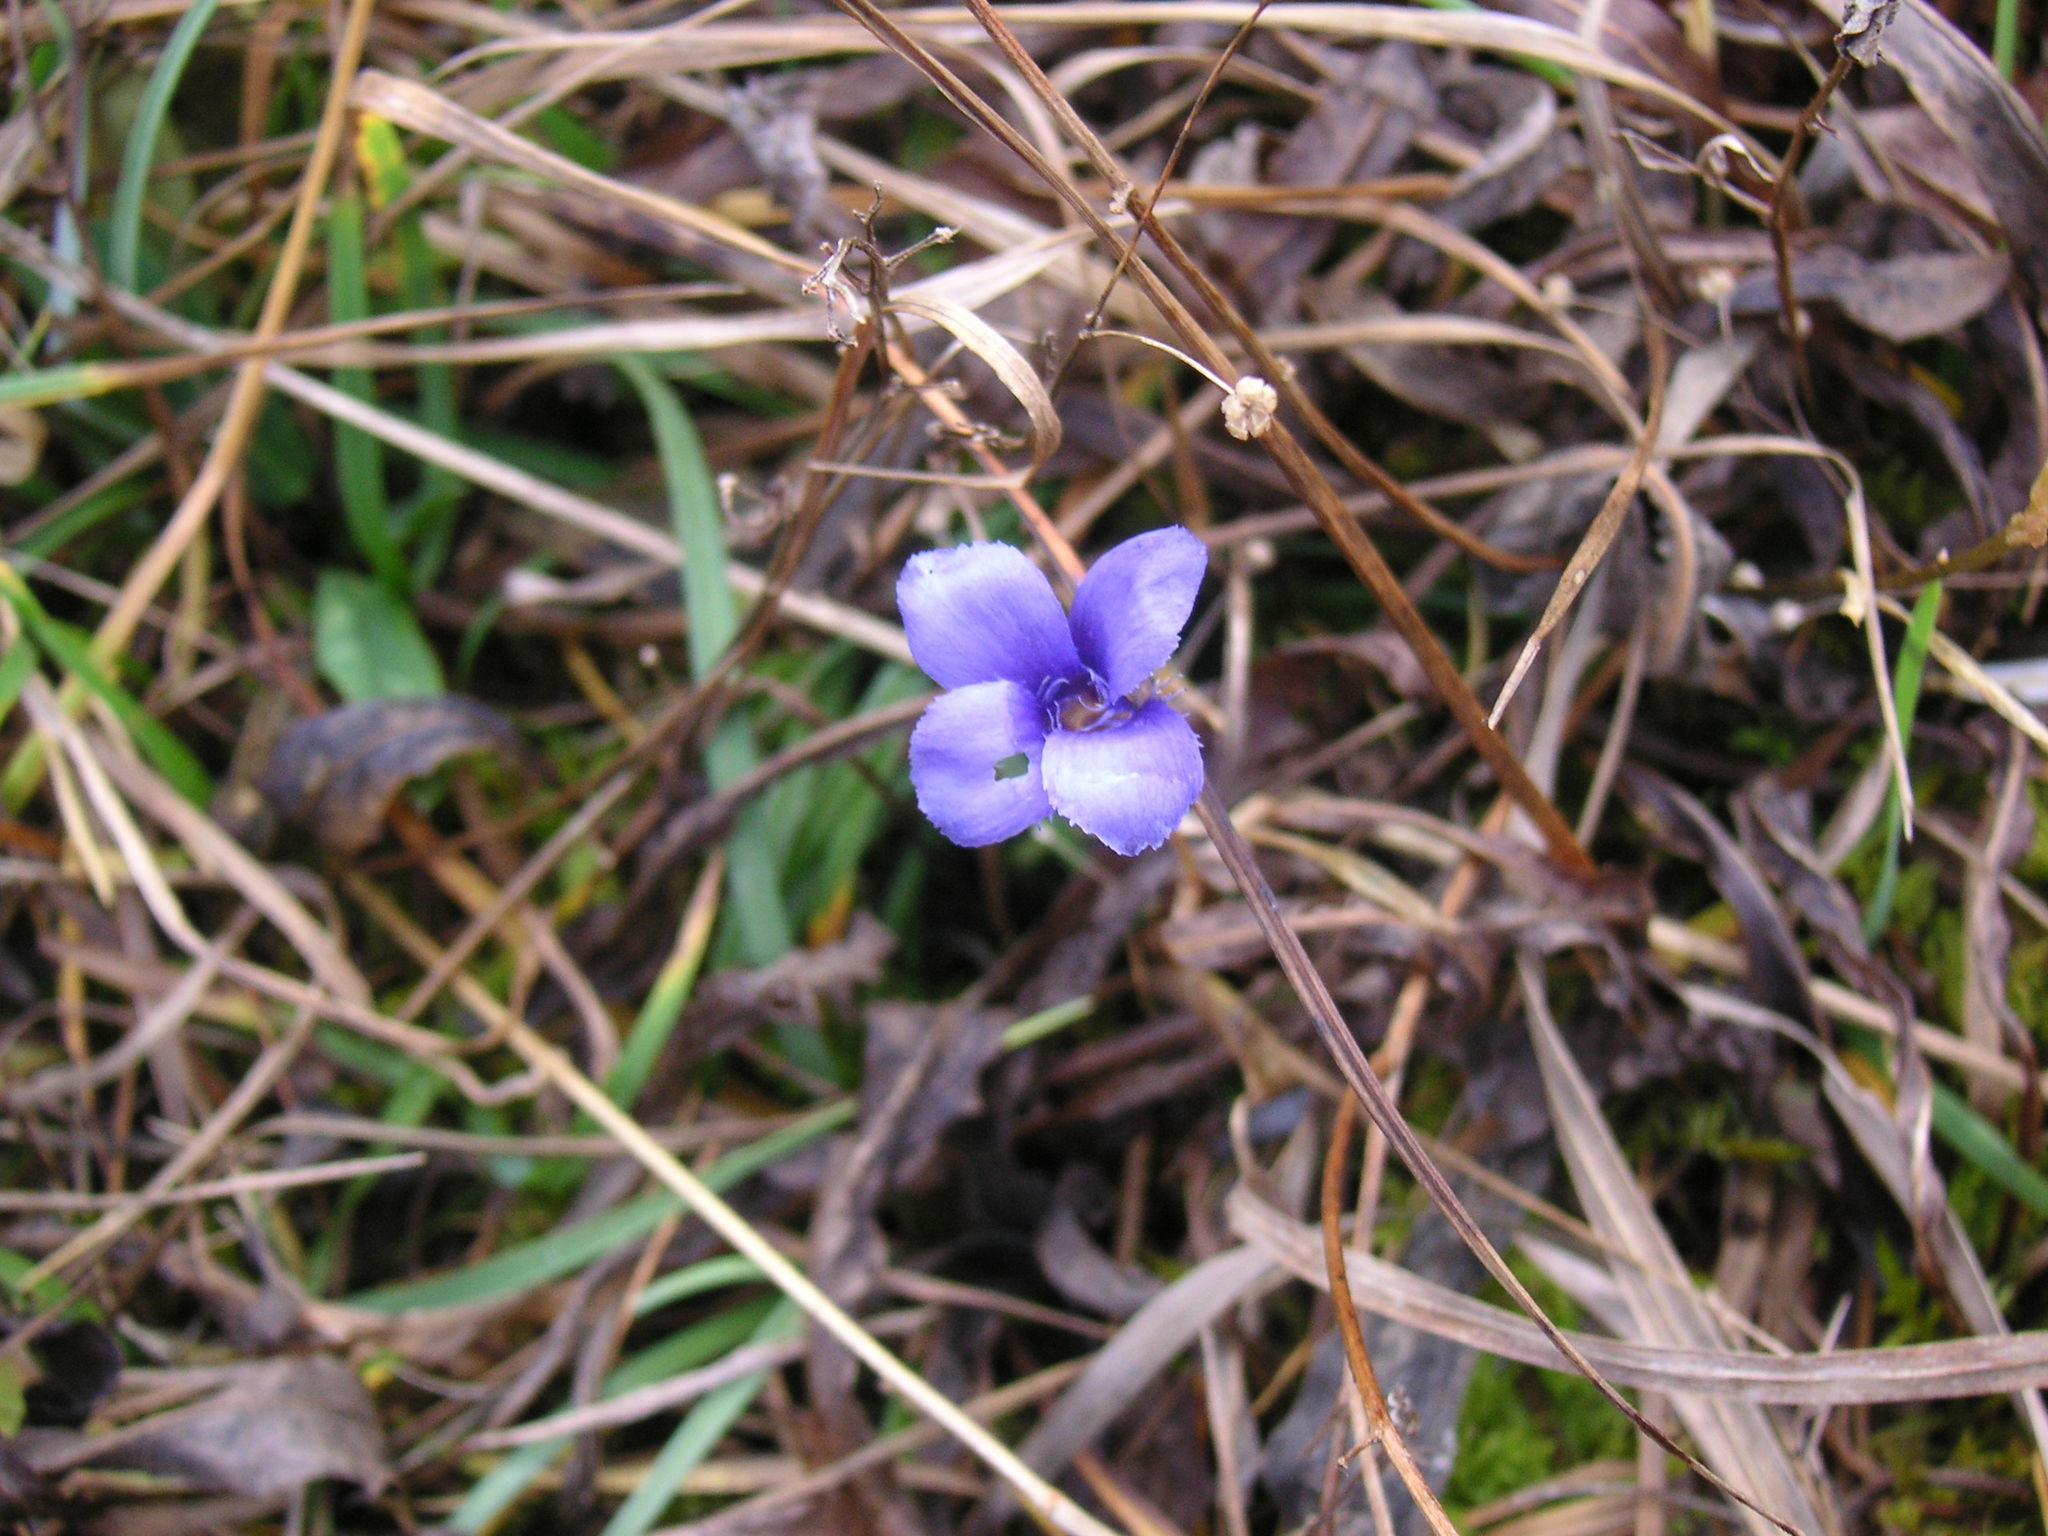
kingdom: Plantae
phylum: Tracheophyta
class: Magnoliopsida
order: Gentianales
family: Gentianaceae
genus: Gentianopsis
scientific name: Gentianopsis ciliata
